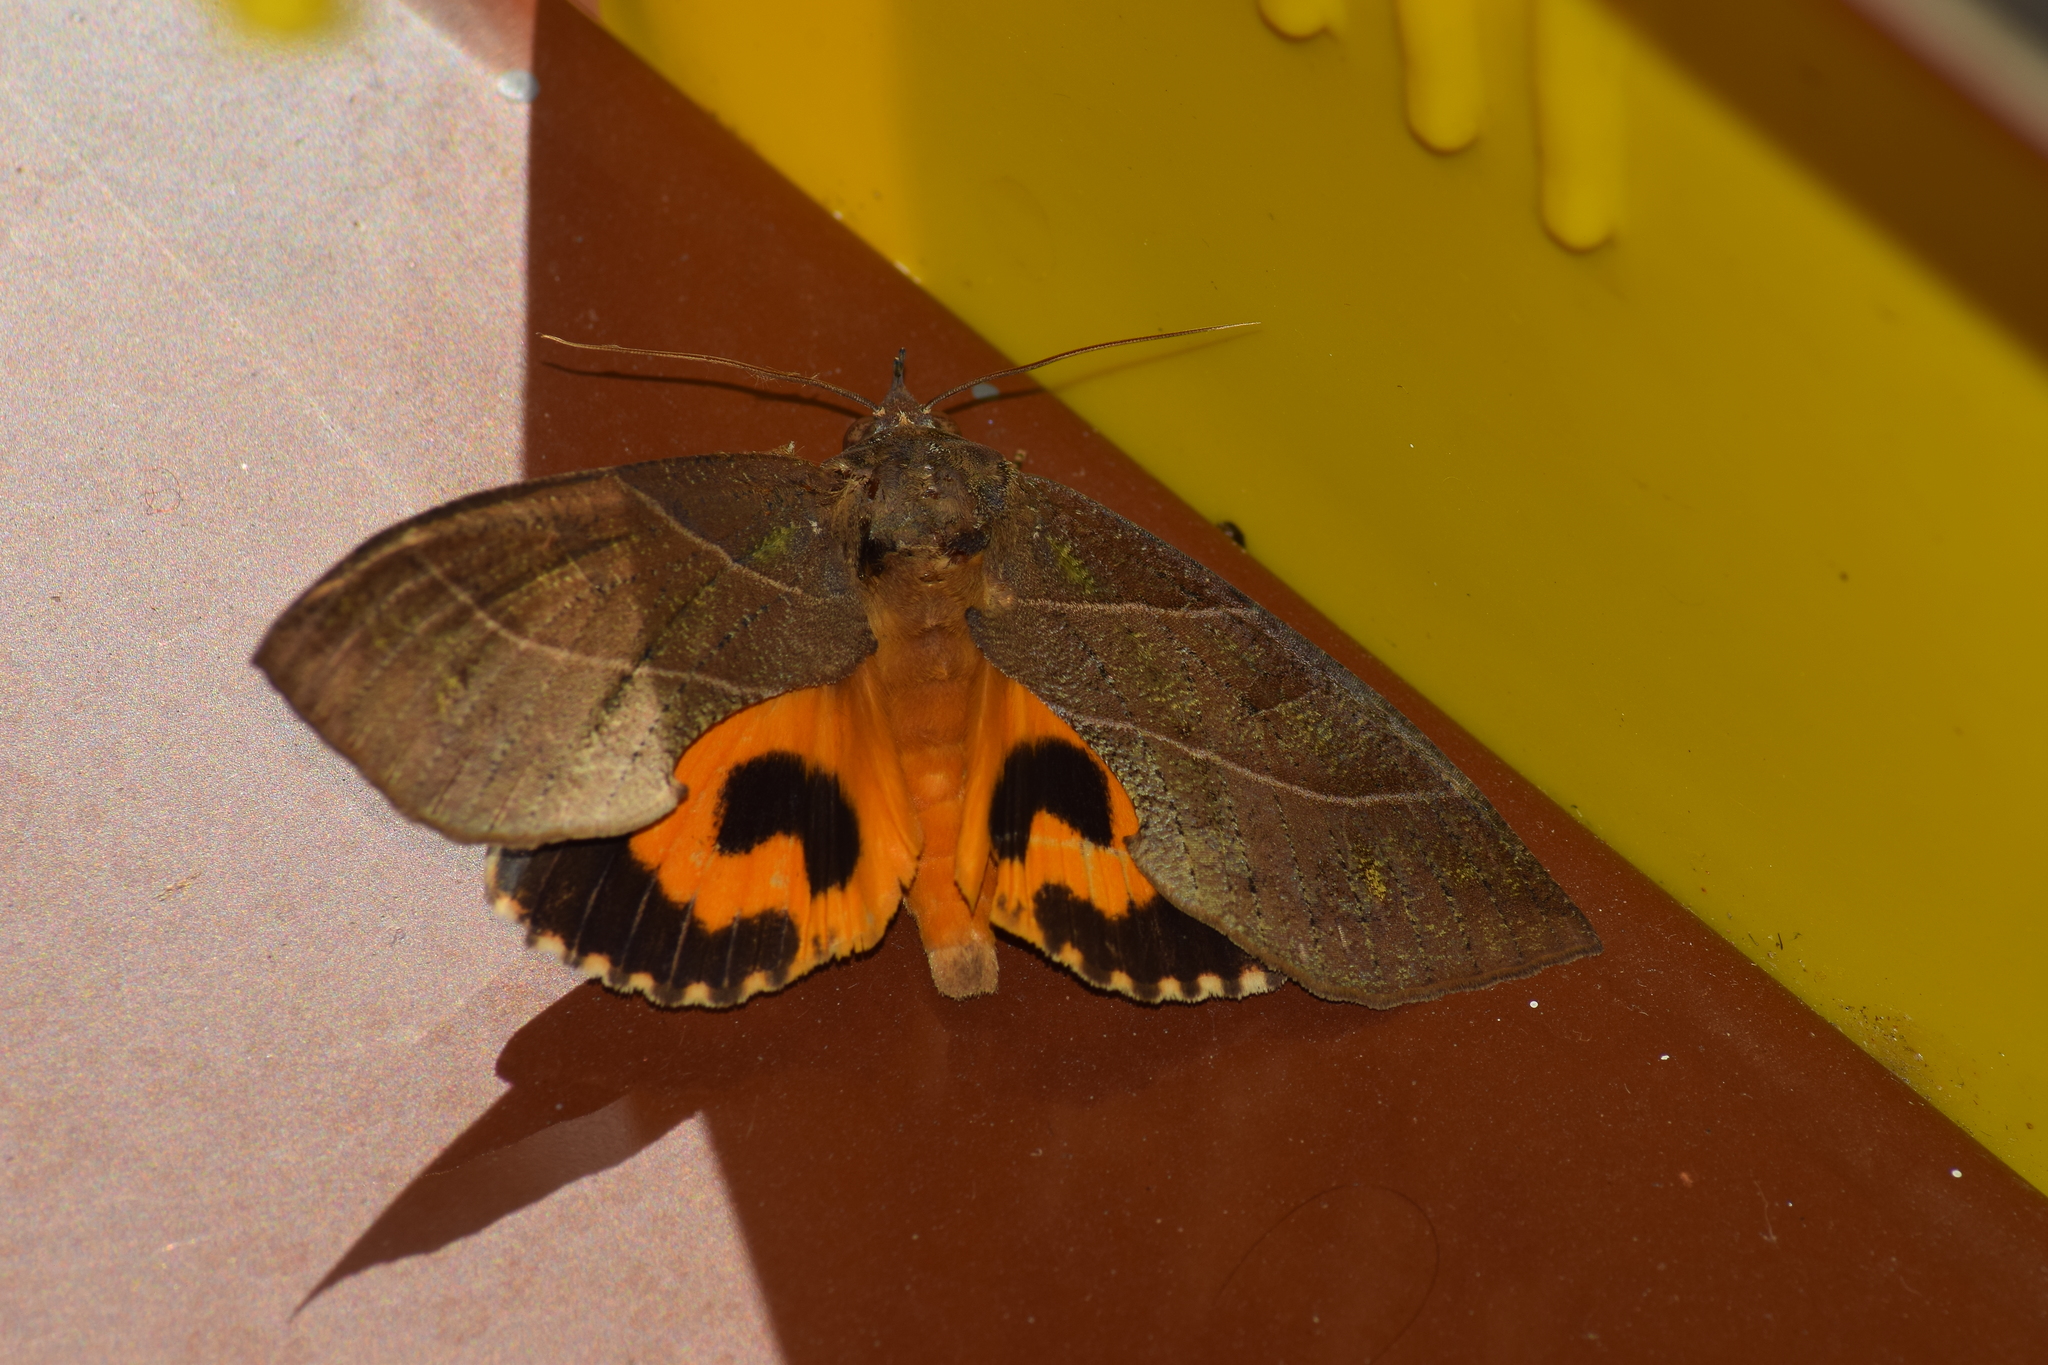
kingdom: Animalia
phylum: Arthropoda
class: Insecta
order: Lepidoptera
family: Erebidae
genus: Eudocima
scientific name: Eudocima cajeta
